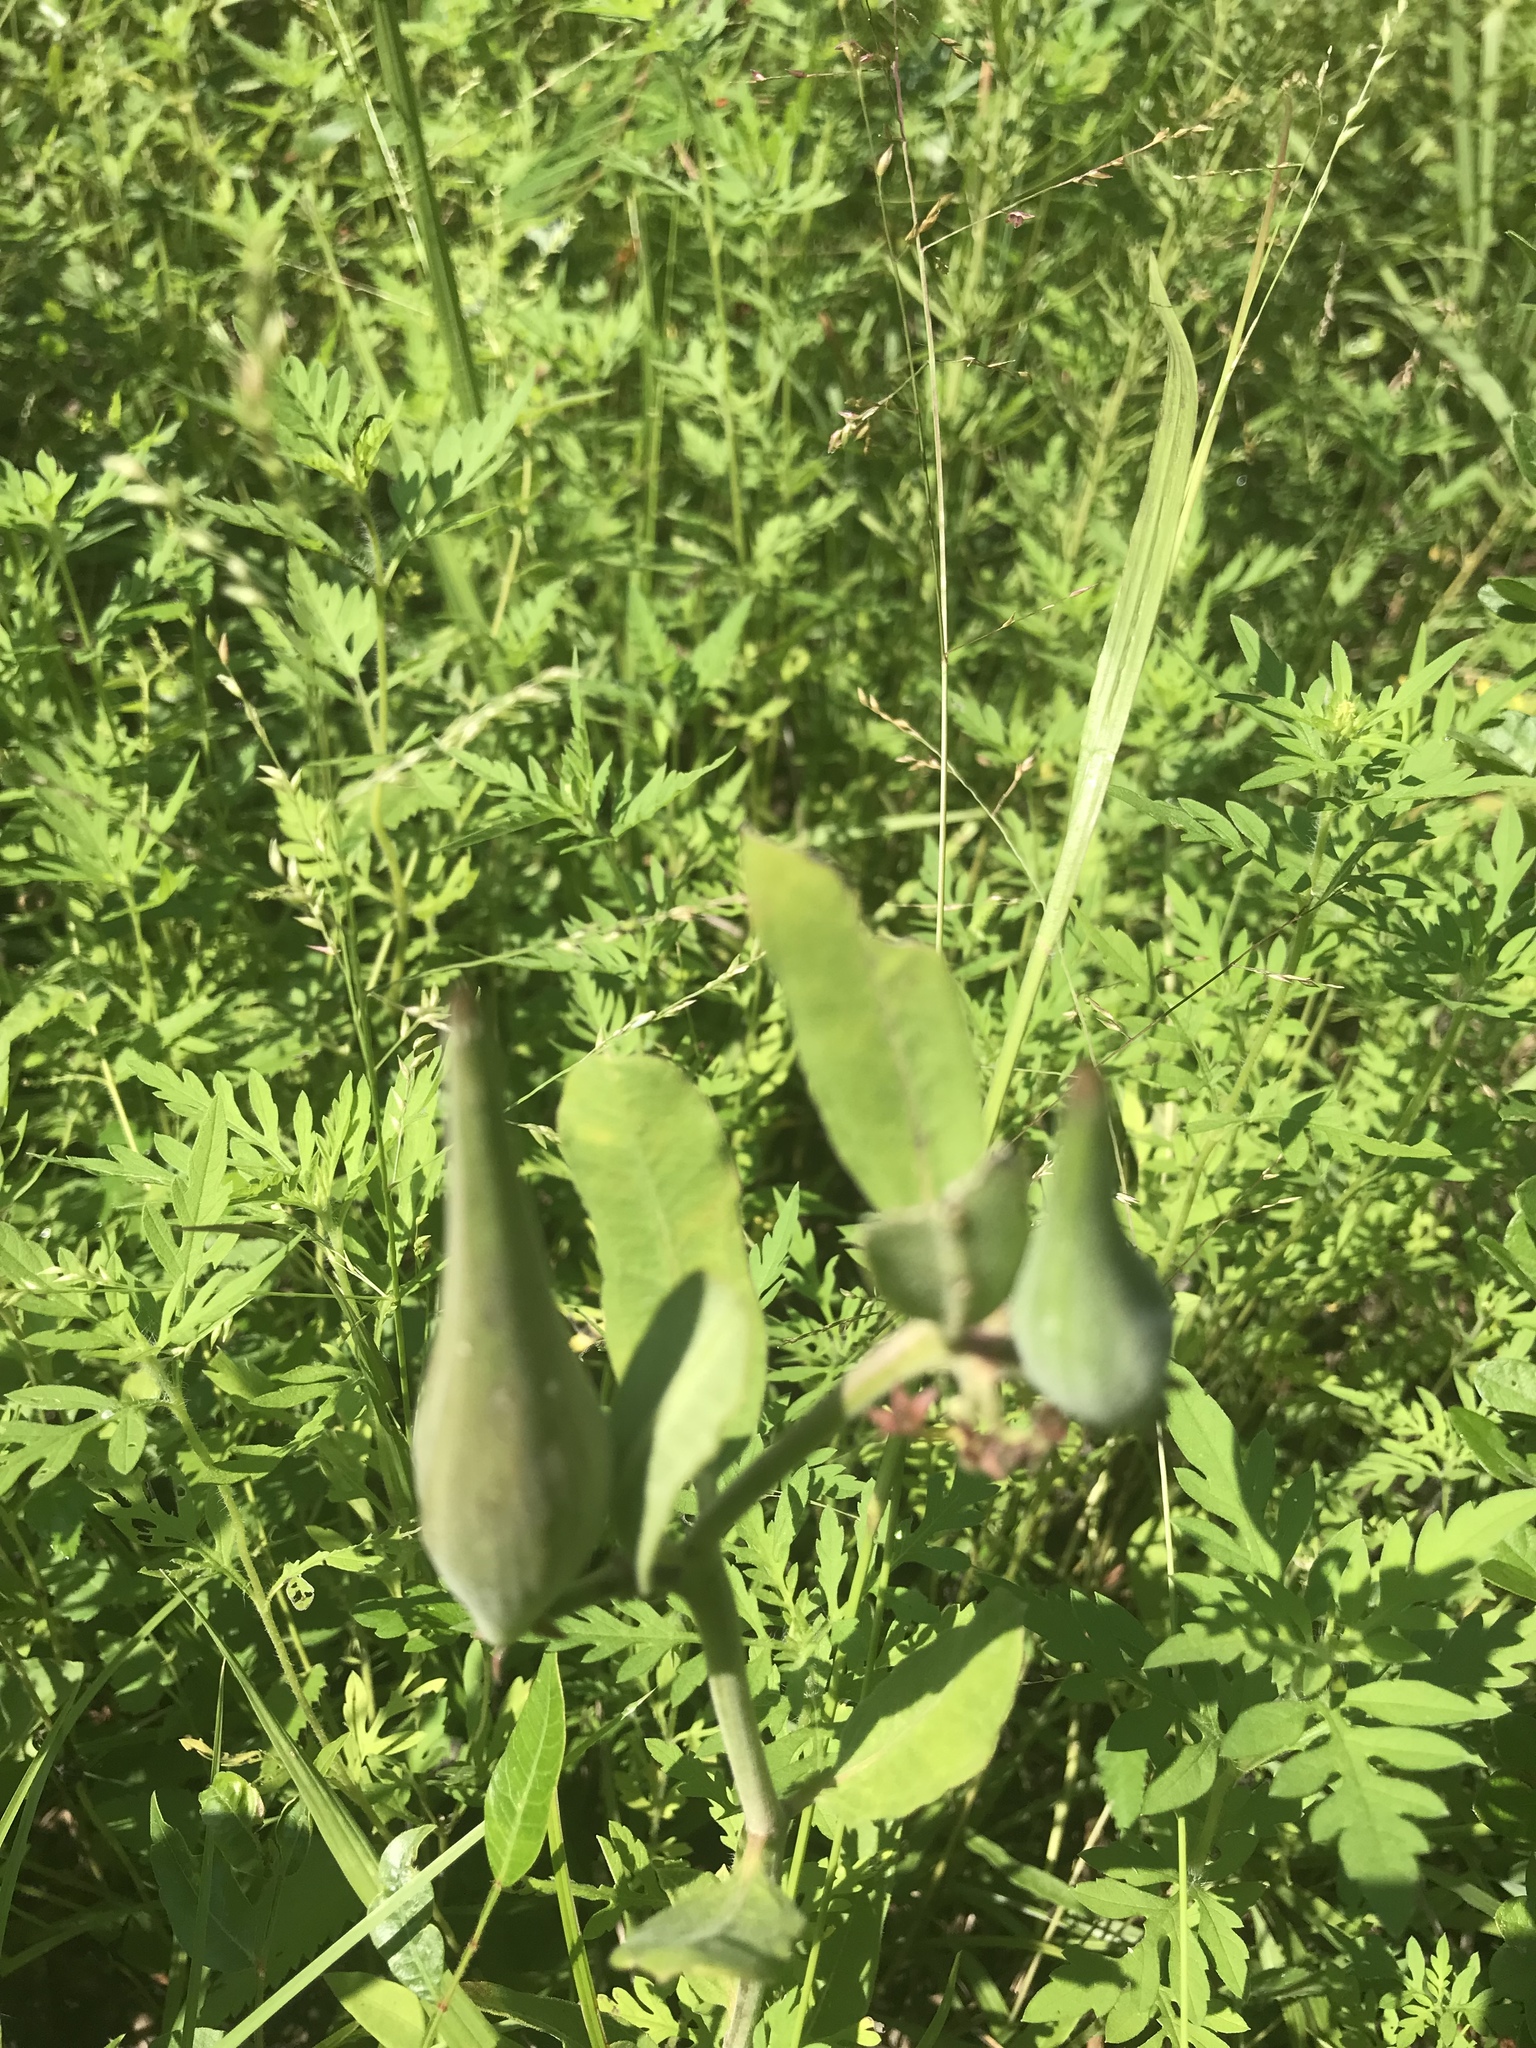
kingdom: Plantae
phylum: Tracheophyta
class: Magnoliopsida
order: Gentianales
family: Apocynaceae
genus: Asclepias
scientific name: Asclepias viridiflora
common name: Green comet milkweed
